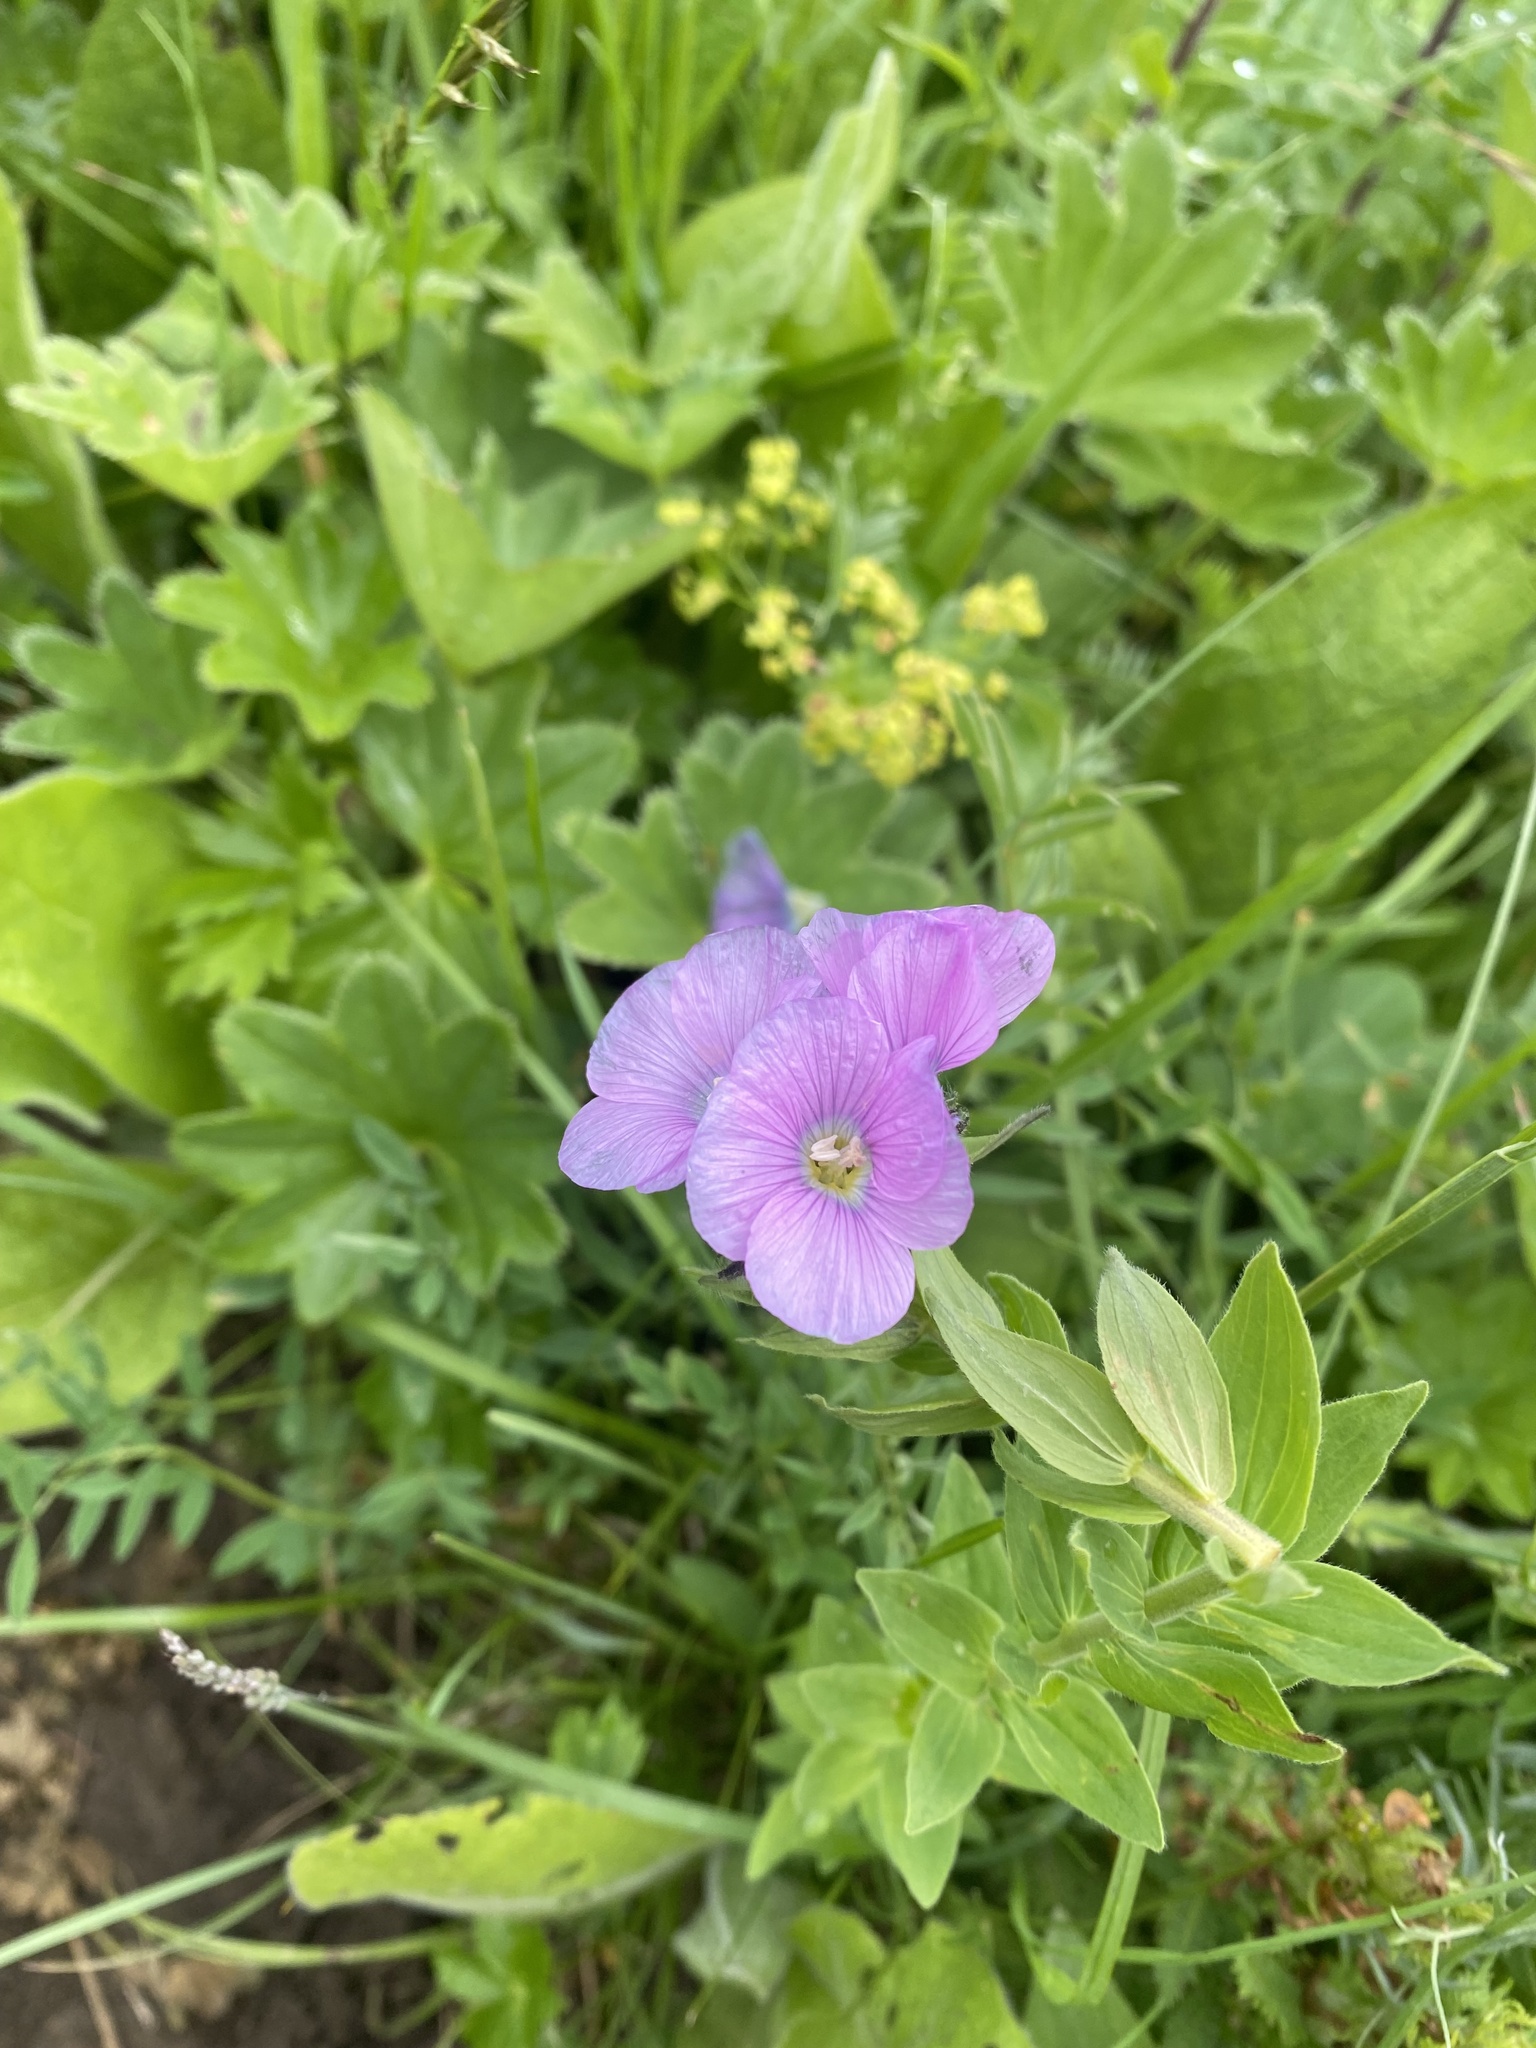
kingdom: Plantae
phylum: Tracheophyta
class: Magnoliopsida
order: Malpighiales
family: Linaceae
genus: Linum
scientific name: Linum hypericifolium
